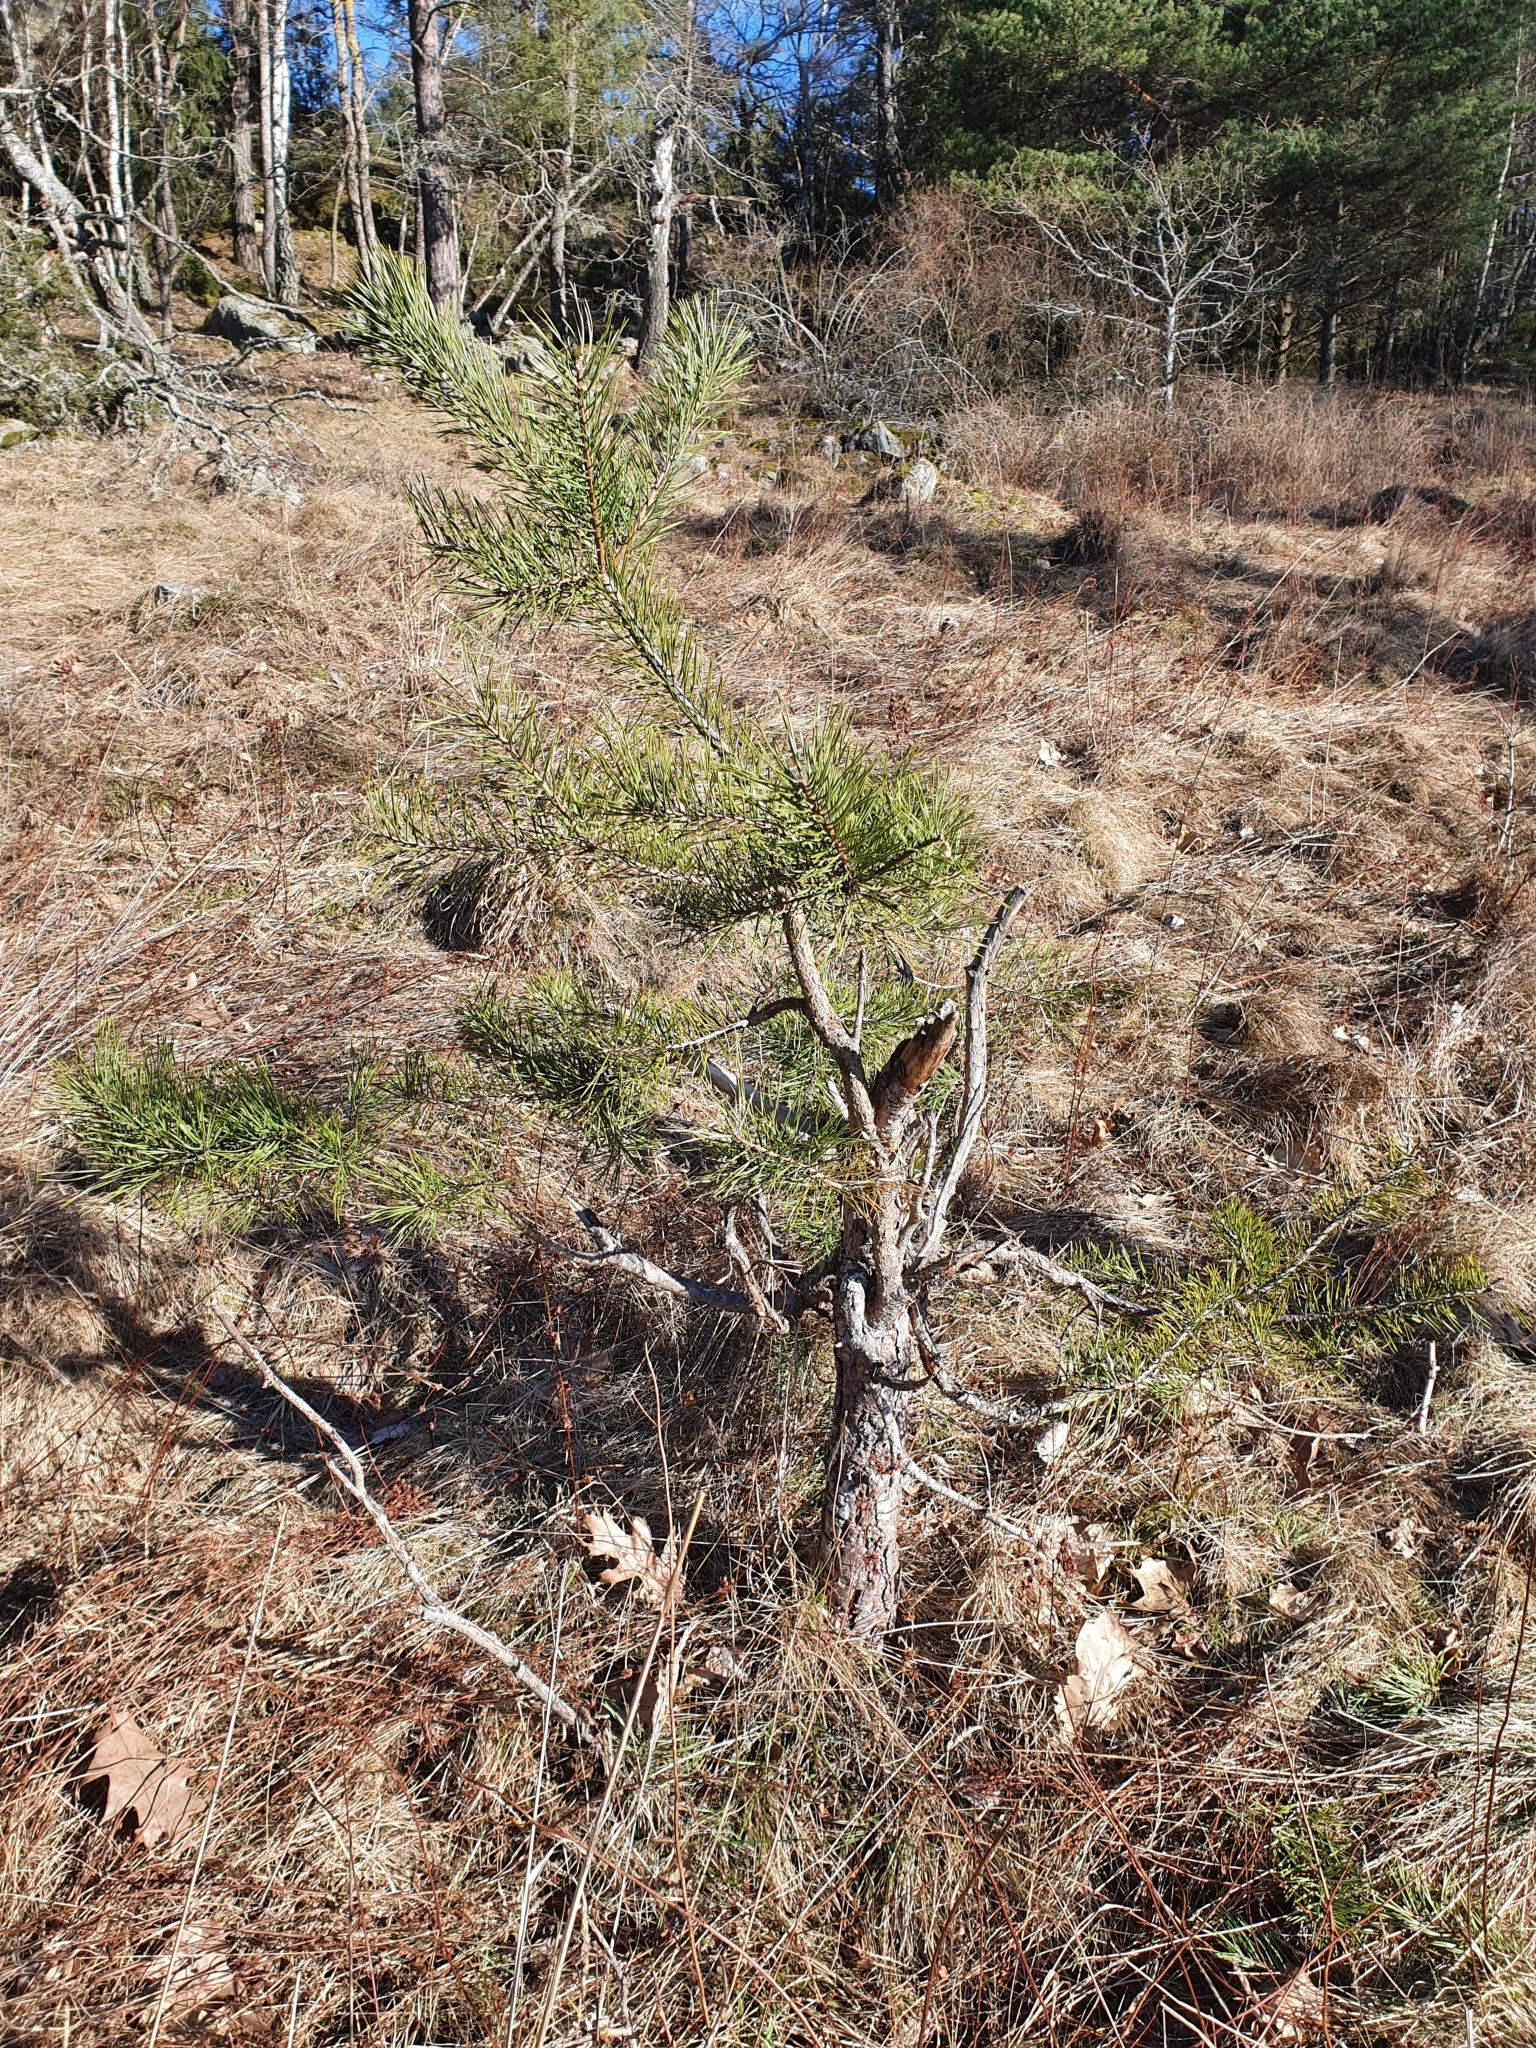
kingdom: Plantae
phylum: Tracheophyta
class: Pinopsida
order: Pinales
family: Pinaceae
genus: Pinus
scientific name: Pinus sylvestris
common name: Scots pine
